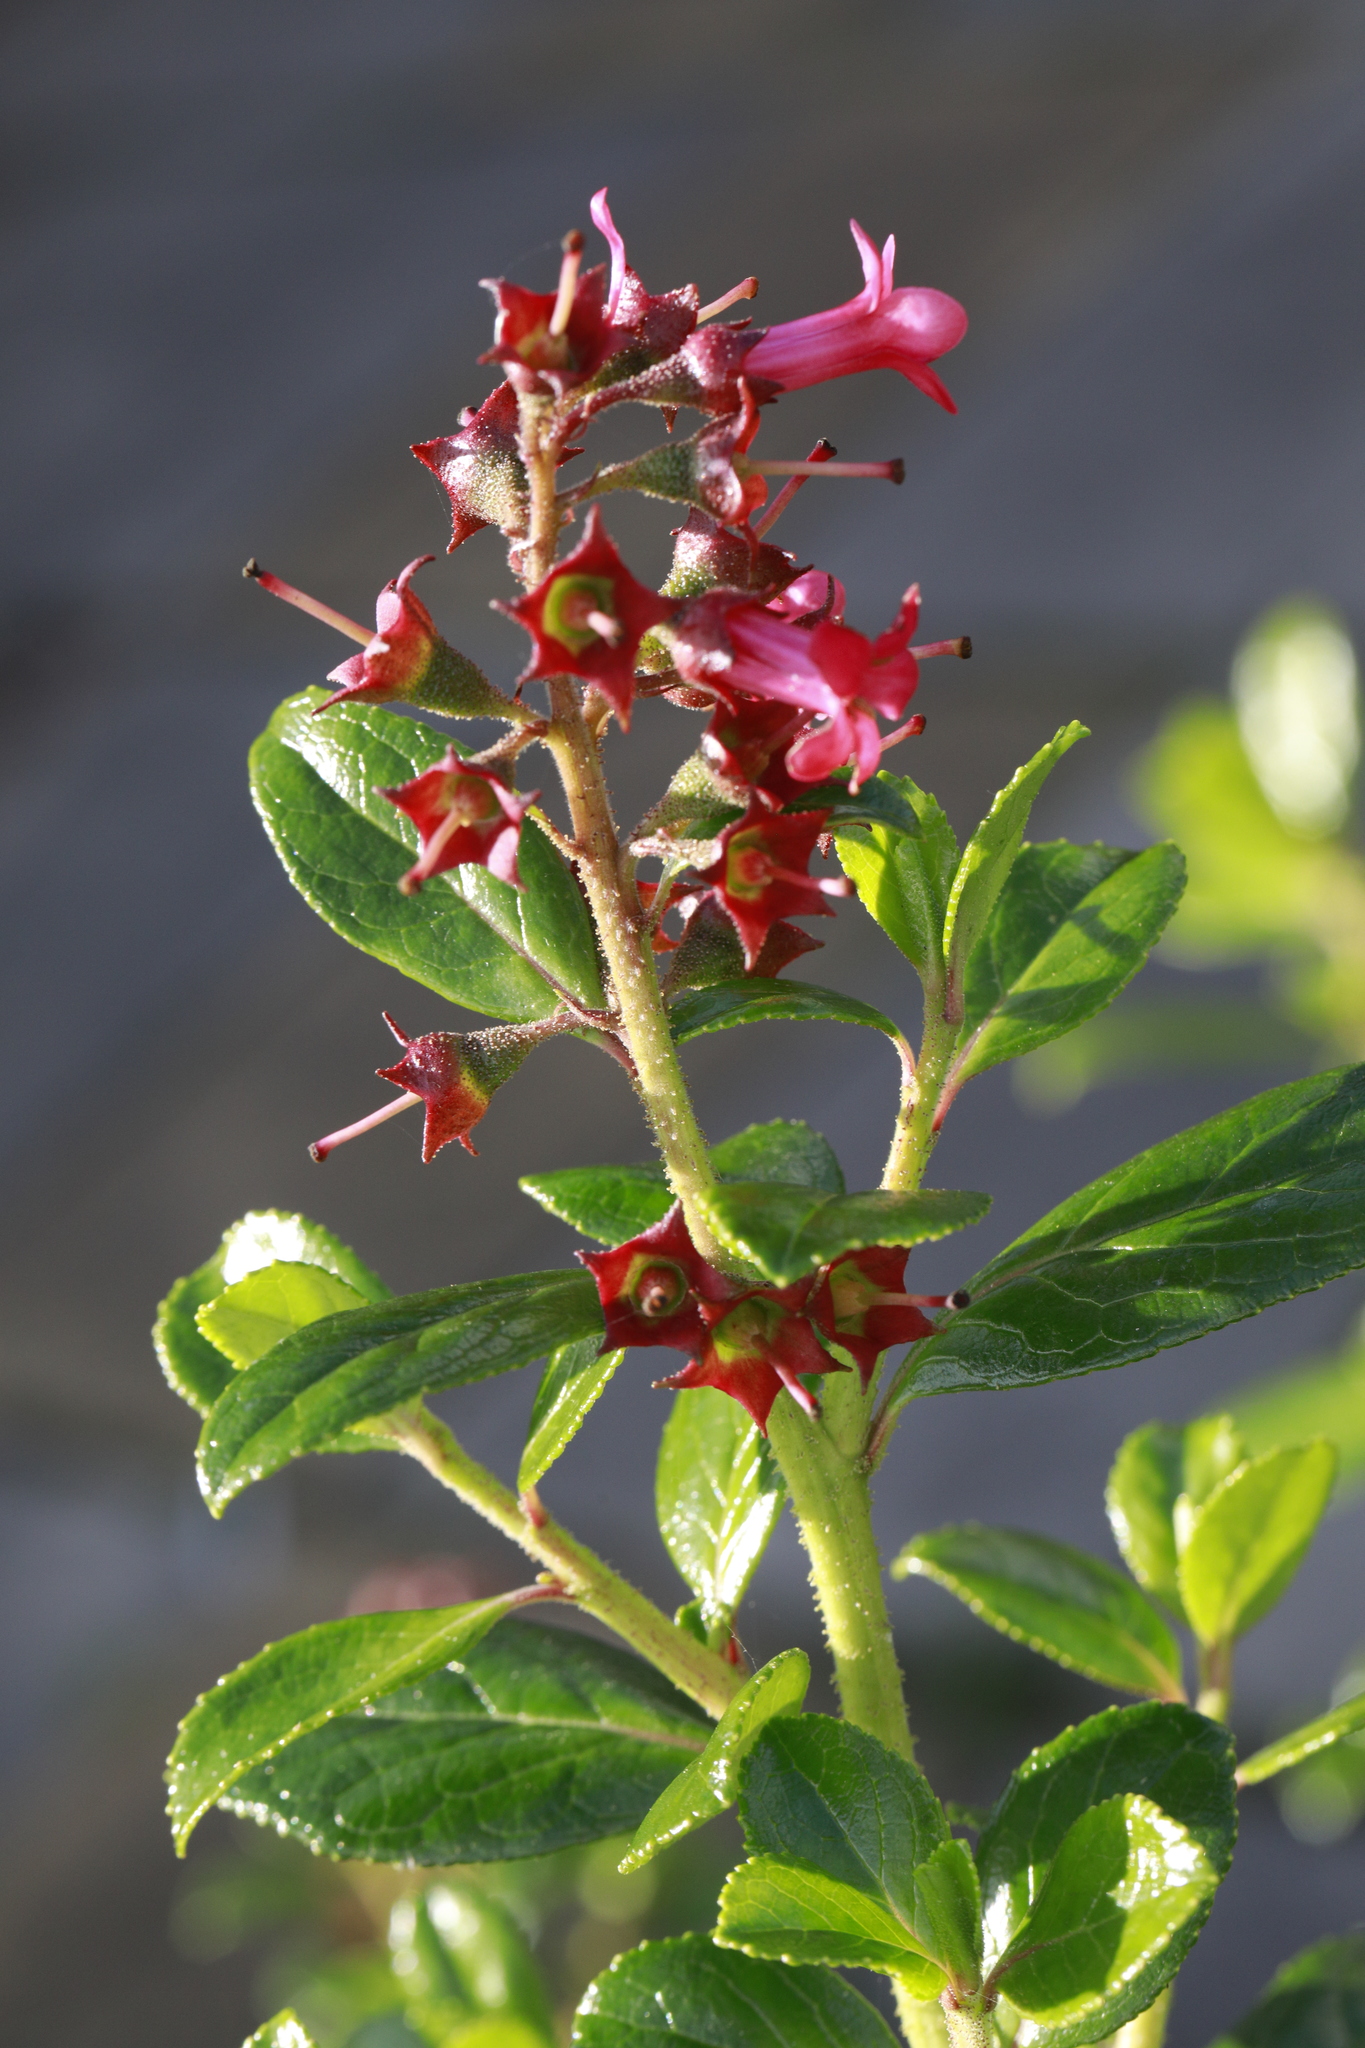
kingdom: Plantae
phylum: Tracheophyta
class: Magnoliopsida
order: Escalloniales
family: Escalloniaceae
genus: Escallonia
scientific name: Escallonia rubra
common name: Redclaws
